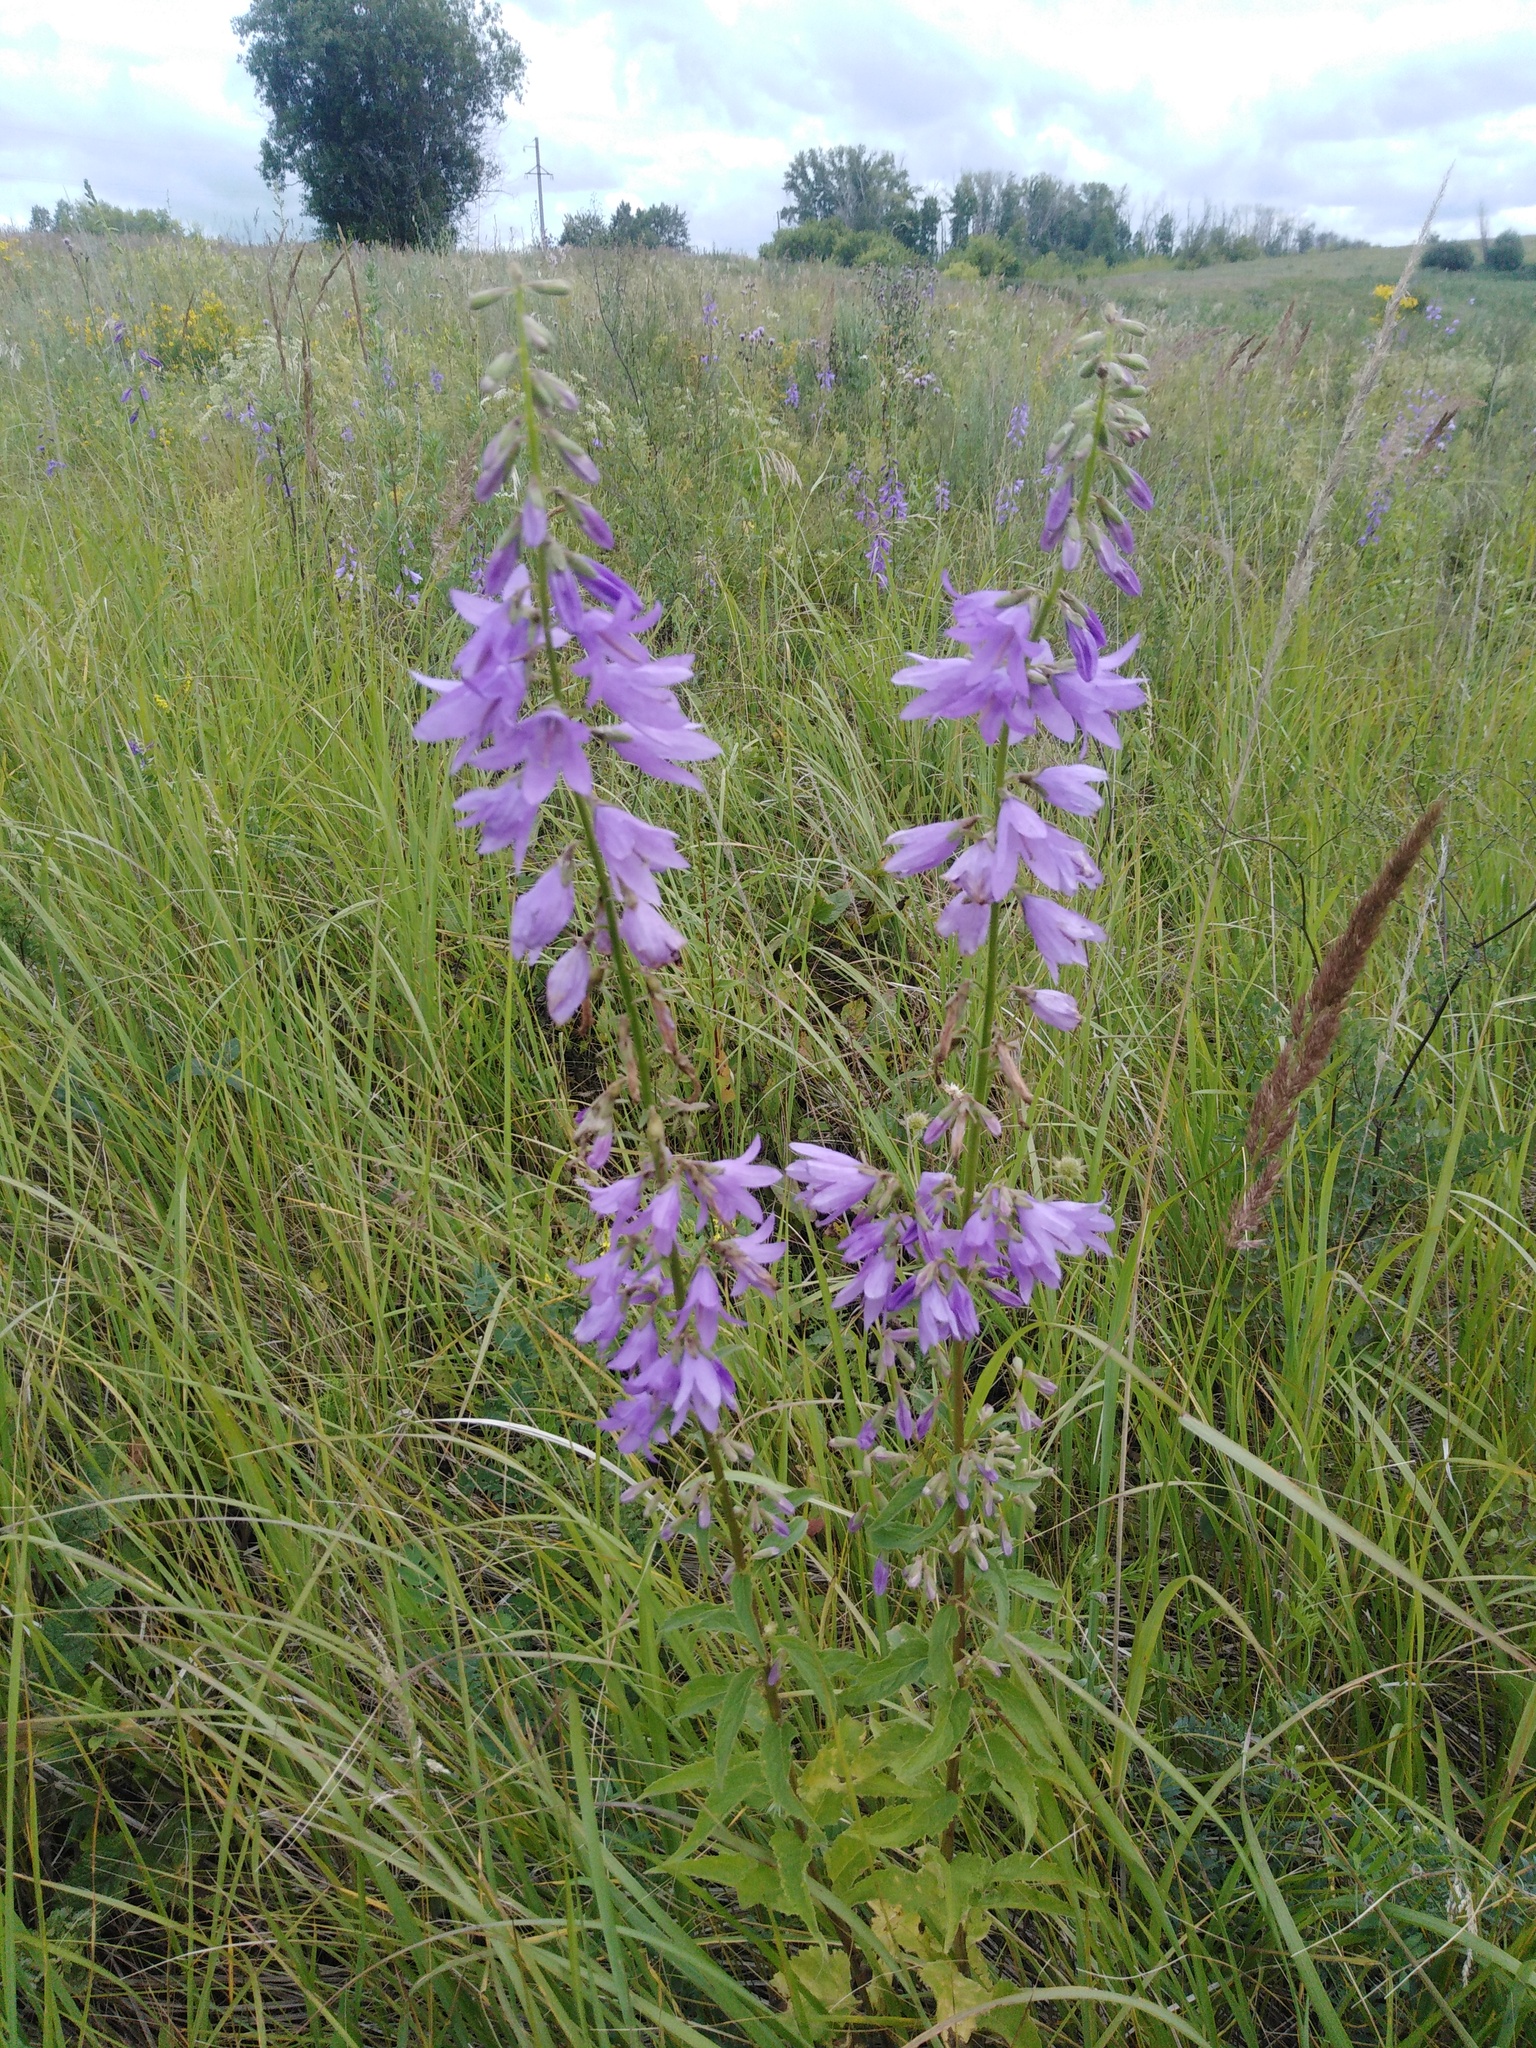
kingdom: Plantae
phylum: Tracheophyta
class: Magnoliopsida
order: Asterales
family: Campanulaceae
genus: Campanula
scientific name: Campanula rapunculoides
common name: Creeping bellflower
